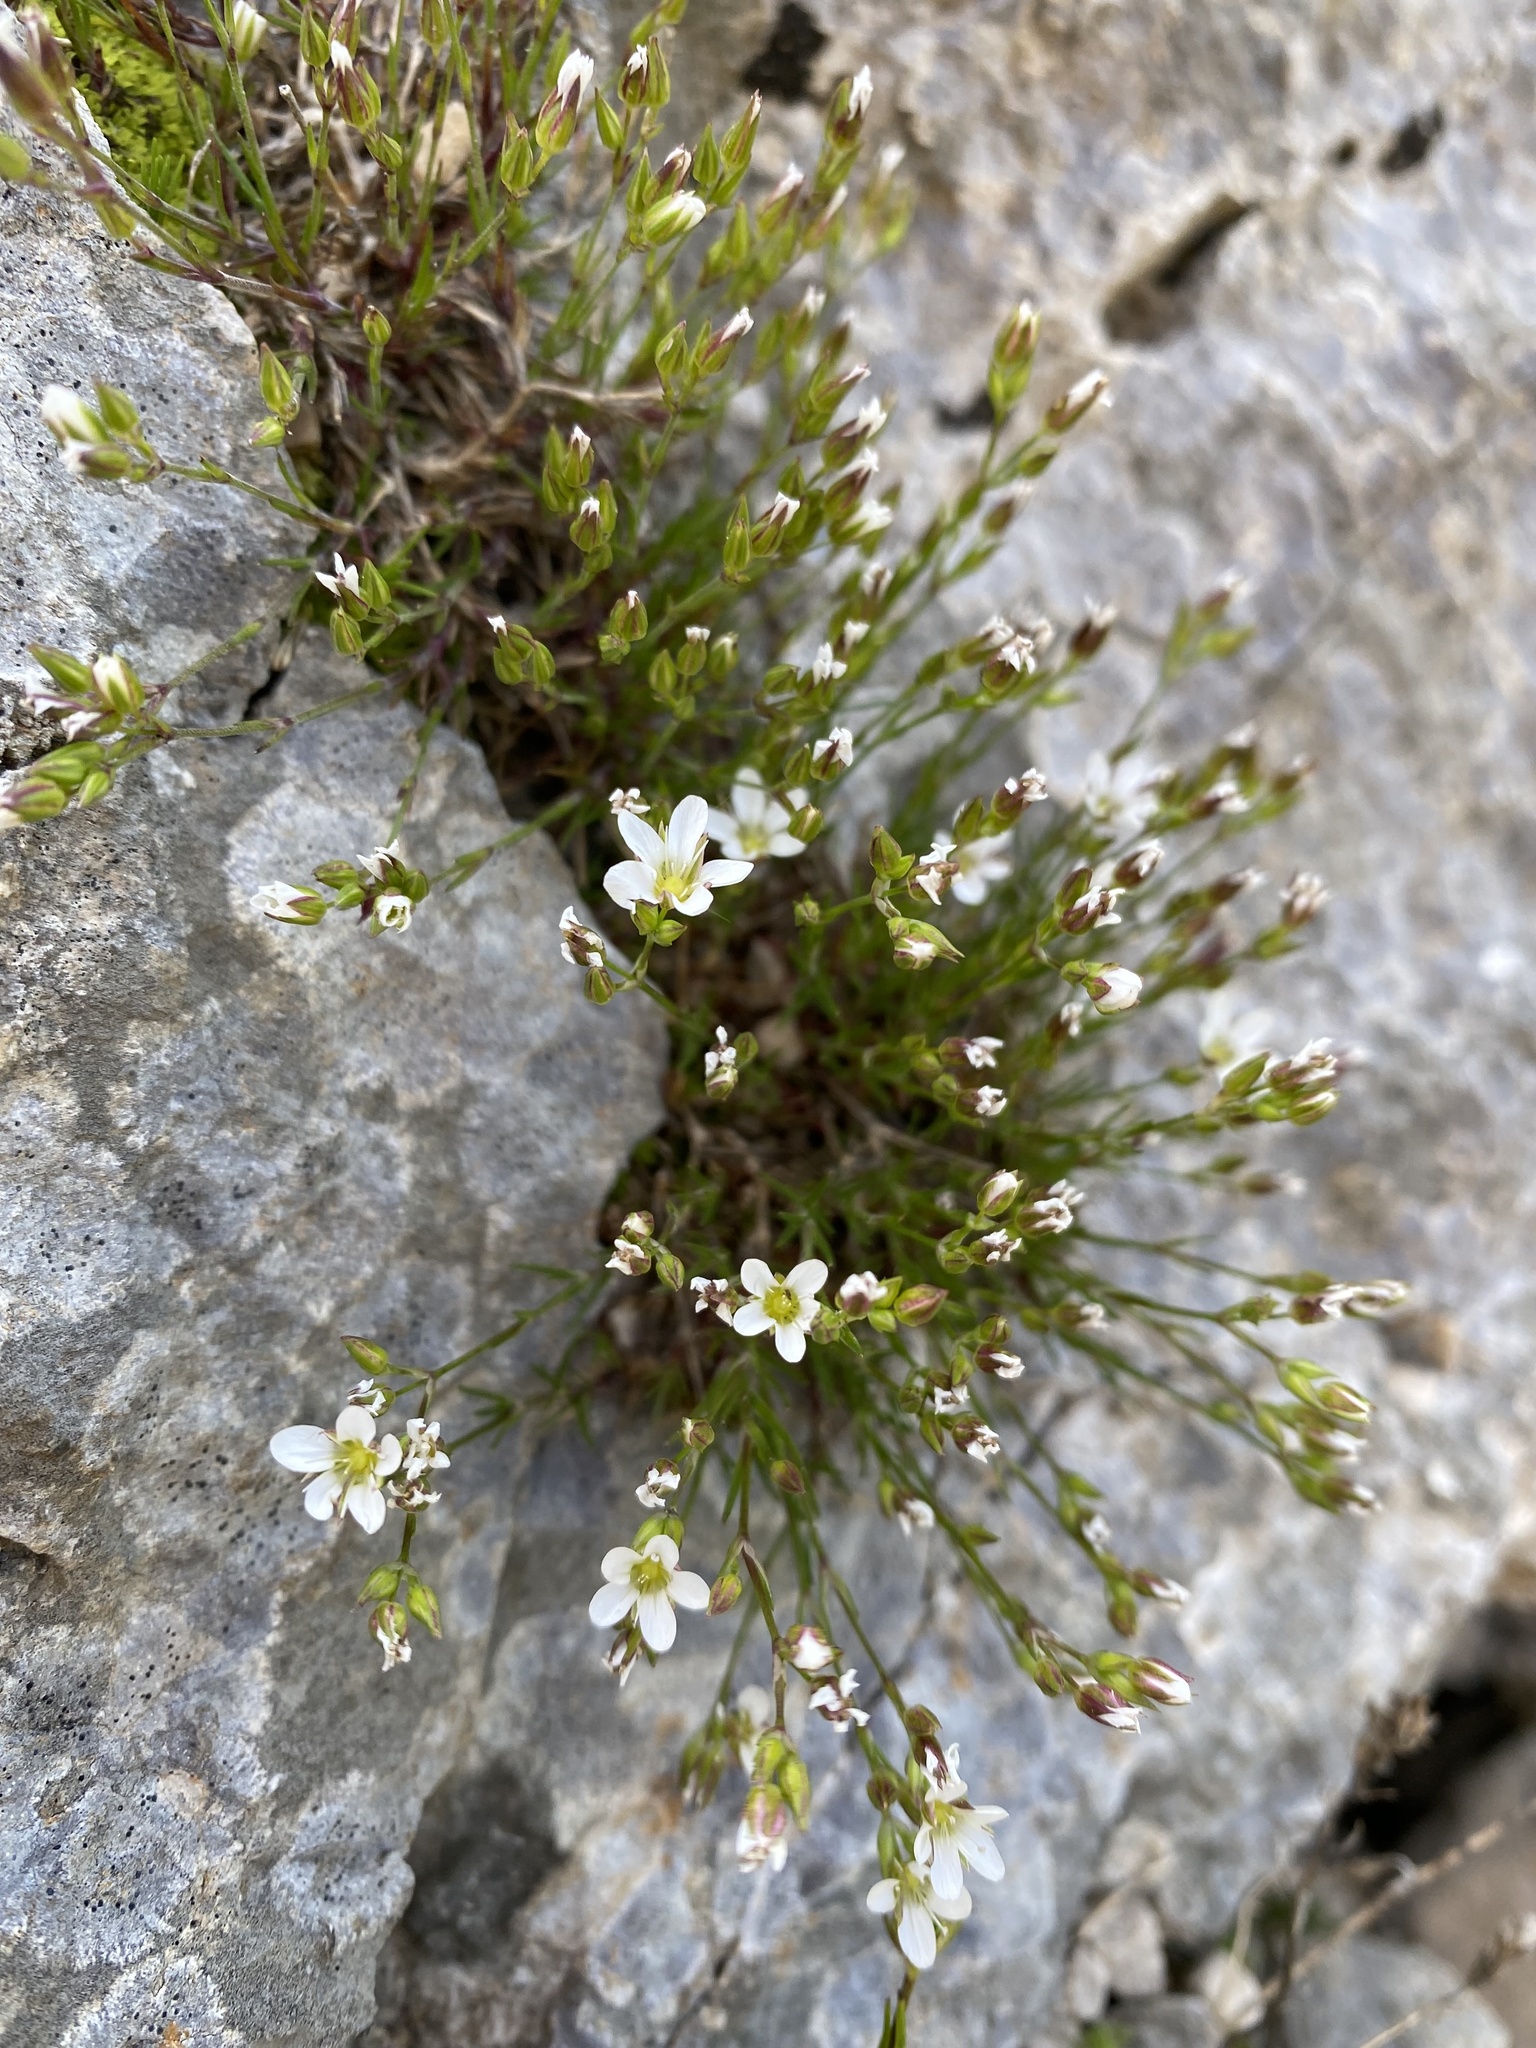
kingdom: Plantae
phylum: Tracheophyta
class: Magnoliopsida
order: Caryophyllales
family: Caryophyllaceae
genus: Minuartia
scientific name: Minuartia hirsuta
